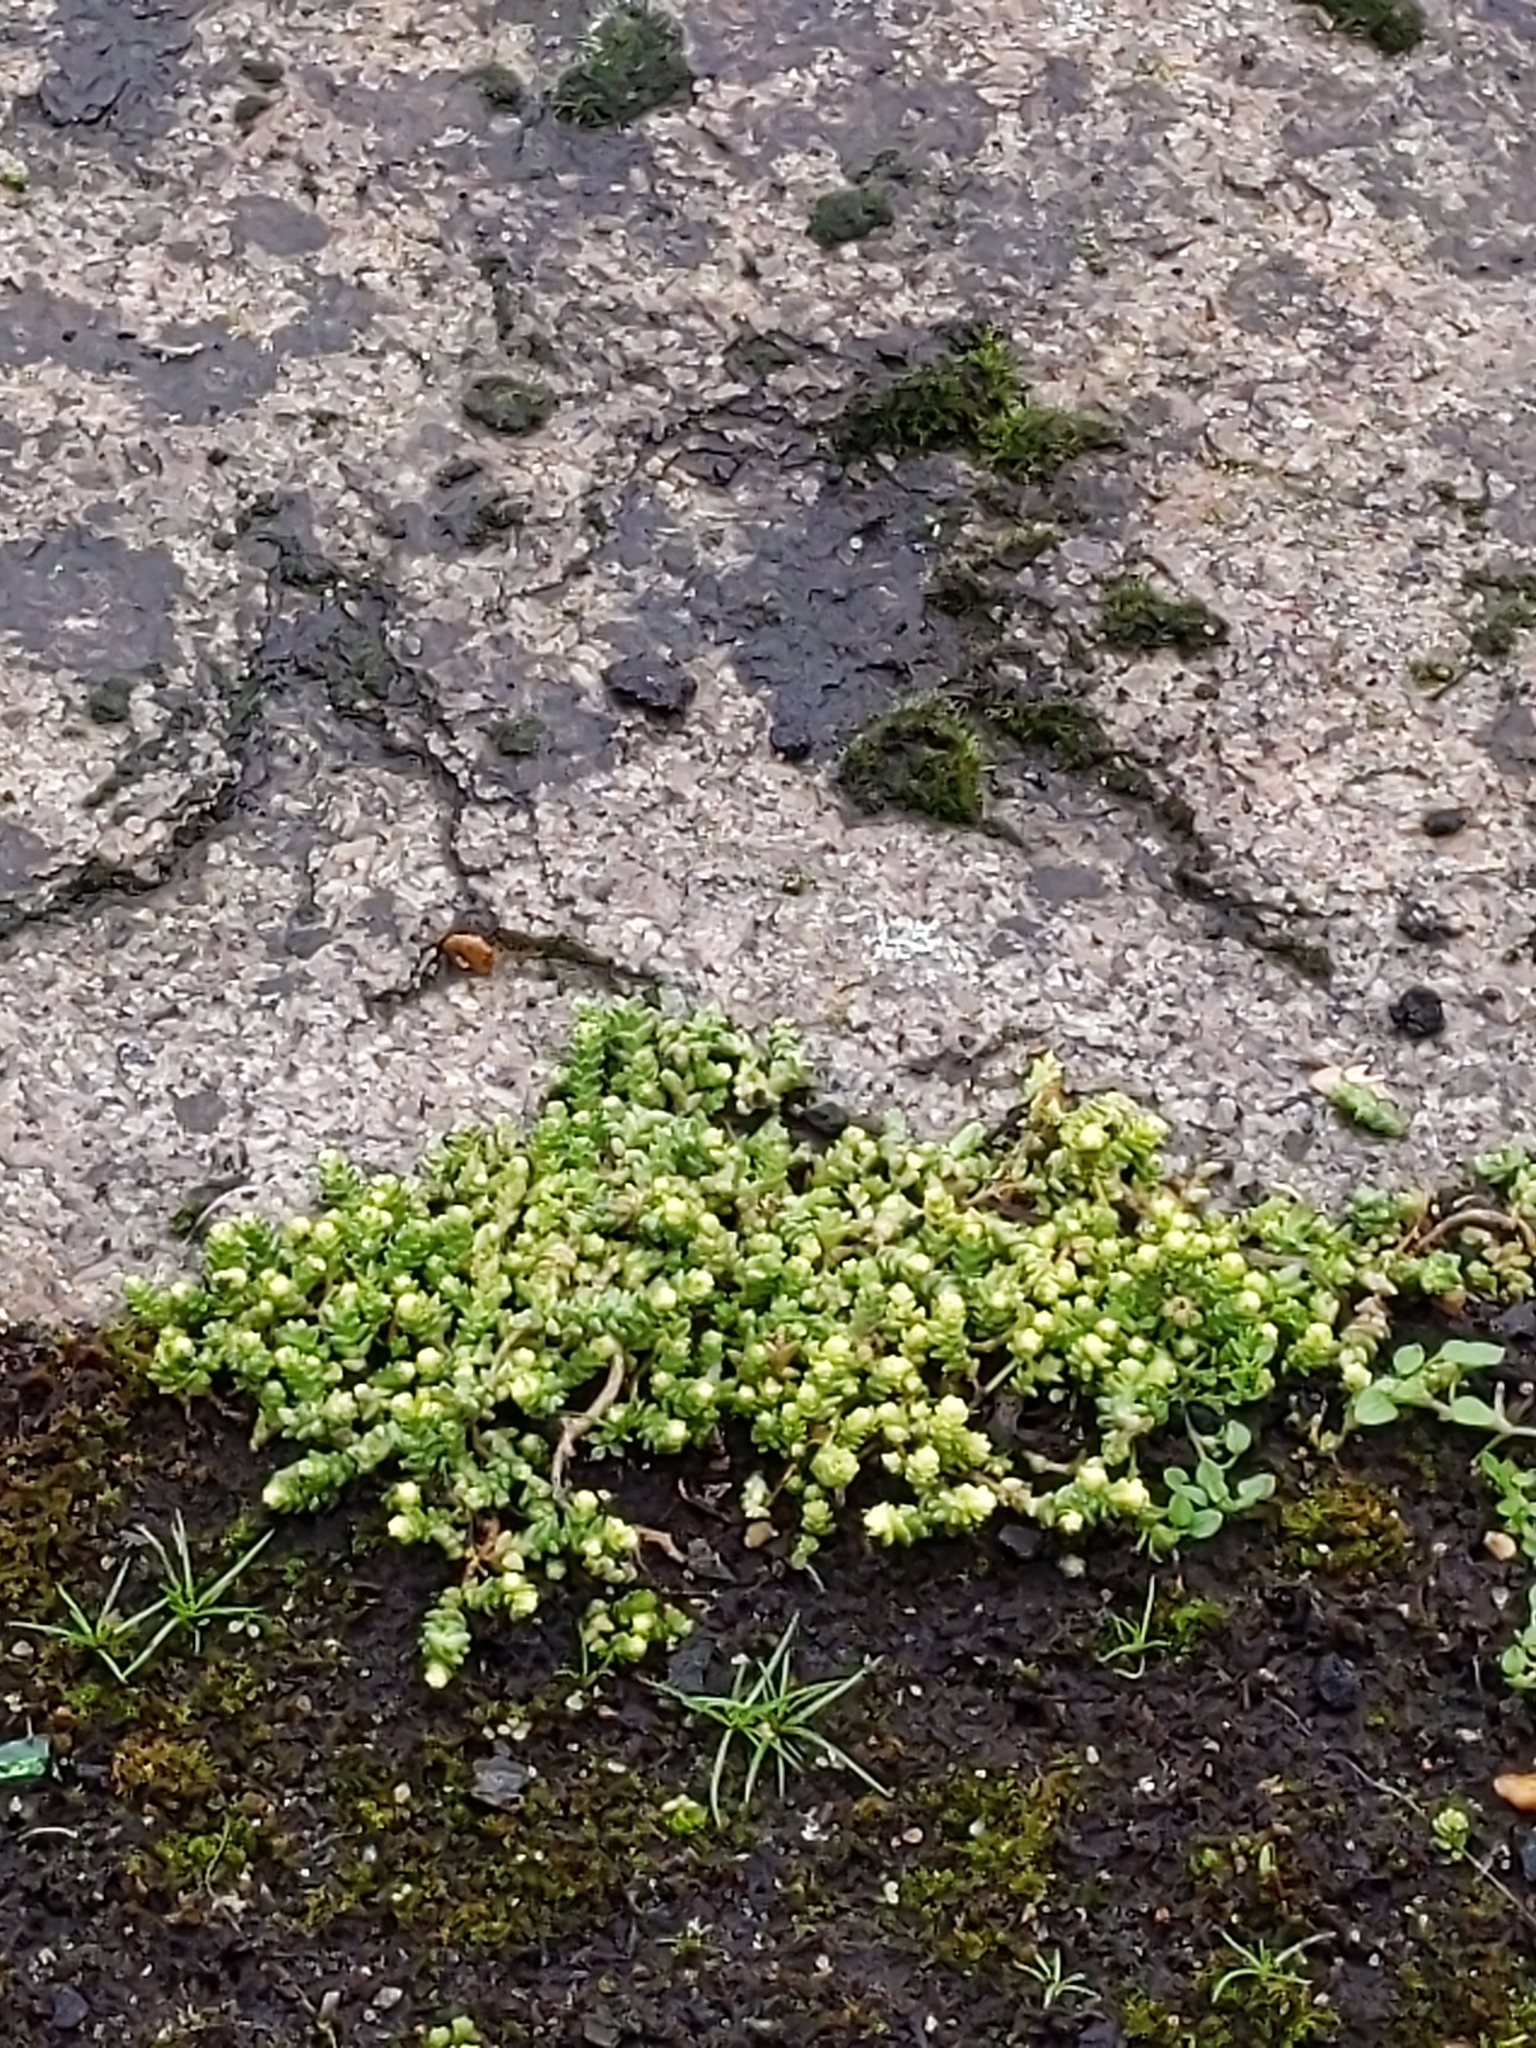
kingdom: Plantae
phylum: Tracheophyta
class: Magnoliopsida
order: Saxifragales
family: Crassulaceae
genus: Sedum
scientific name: Sedum acre
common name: Biting stonecrop
